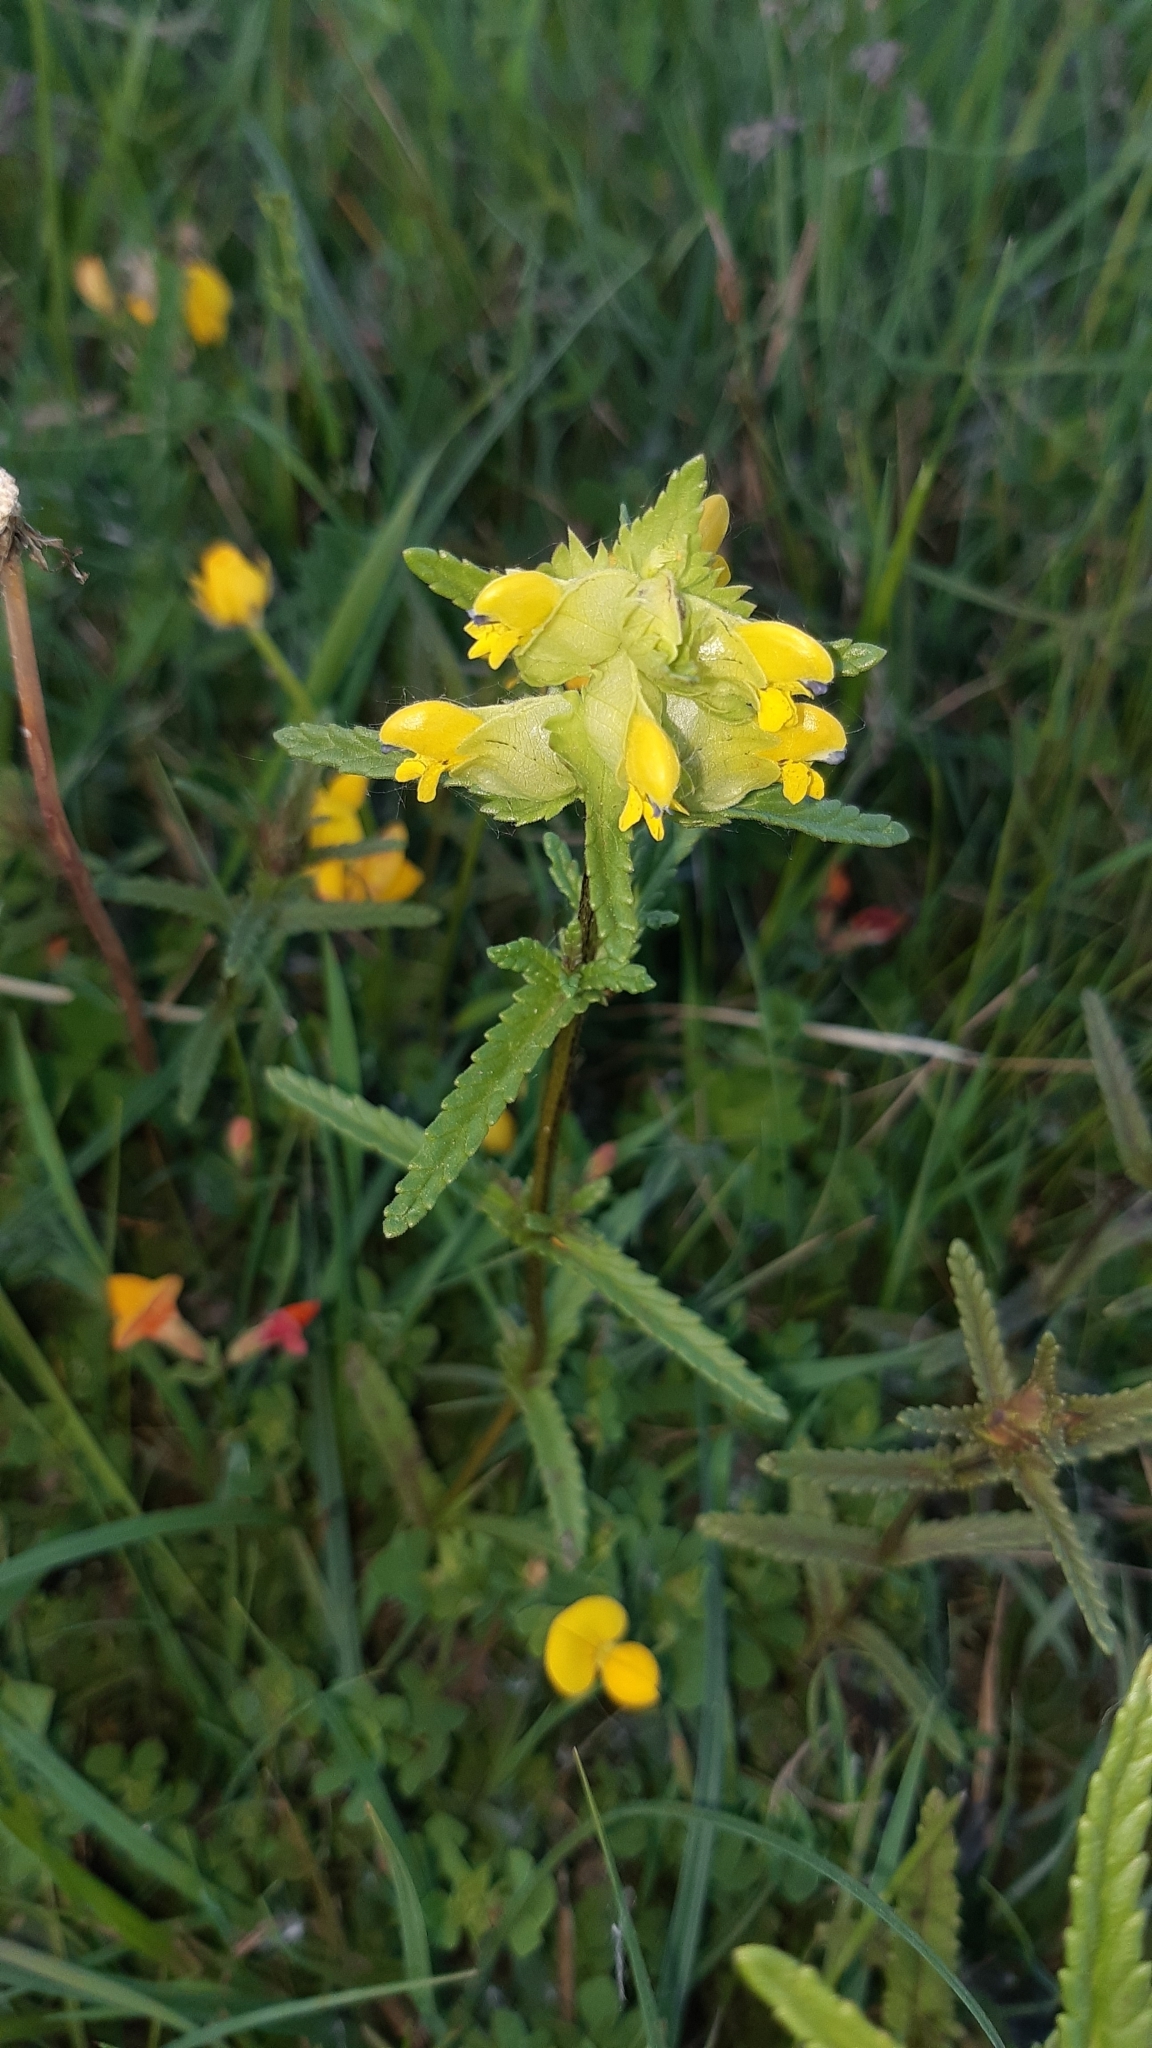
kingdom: Plantae
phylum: Tracheophyta
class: Magnoliopsida
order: Lamiales
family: Orobanchaceae
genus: Rhinanthus
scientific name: Rhinanthus minor
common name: Yellow-rattle
